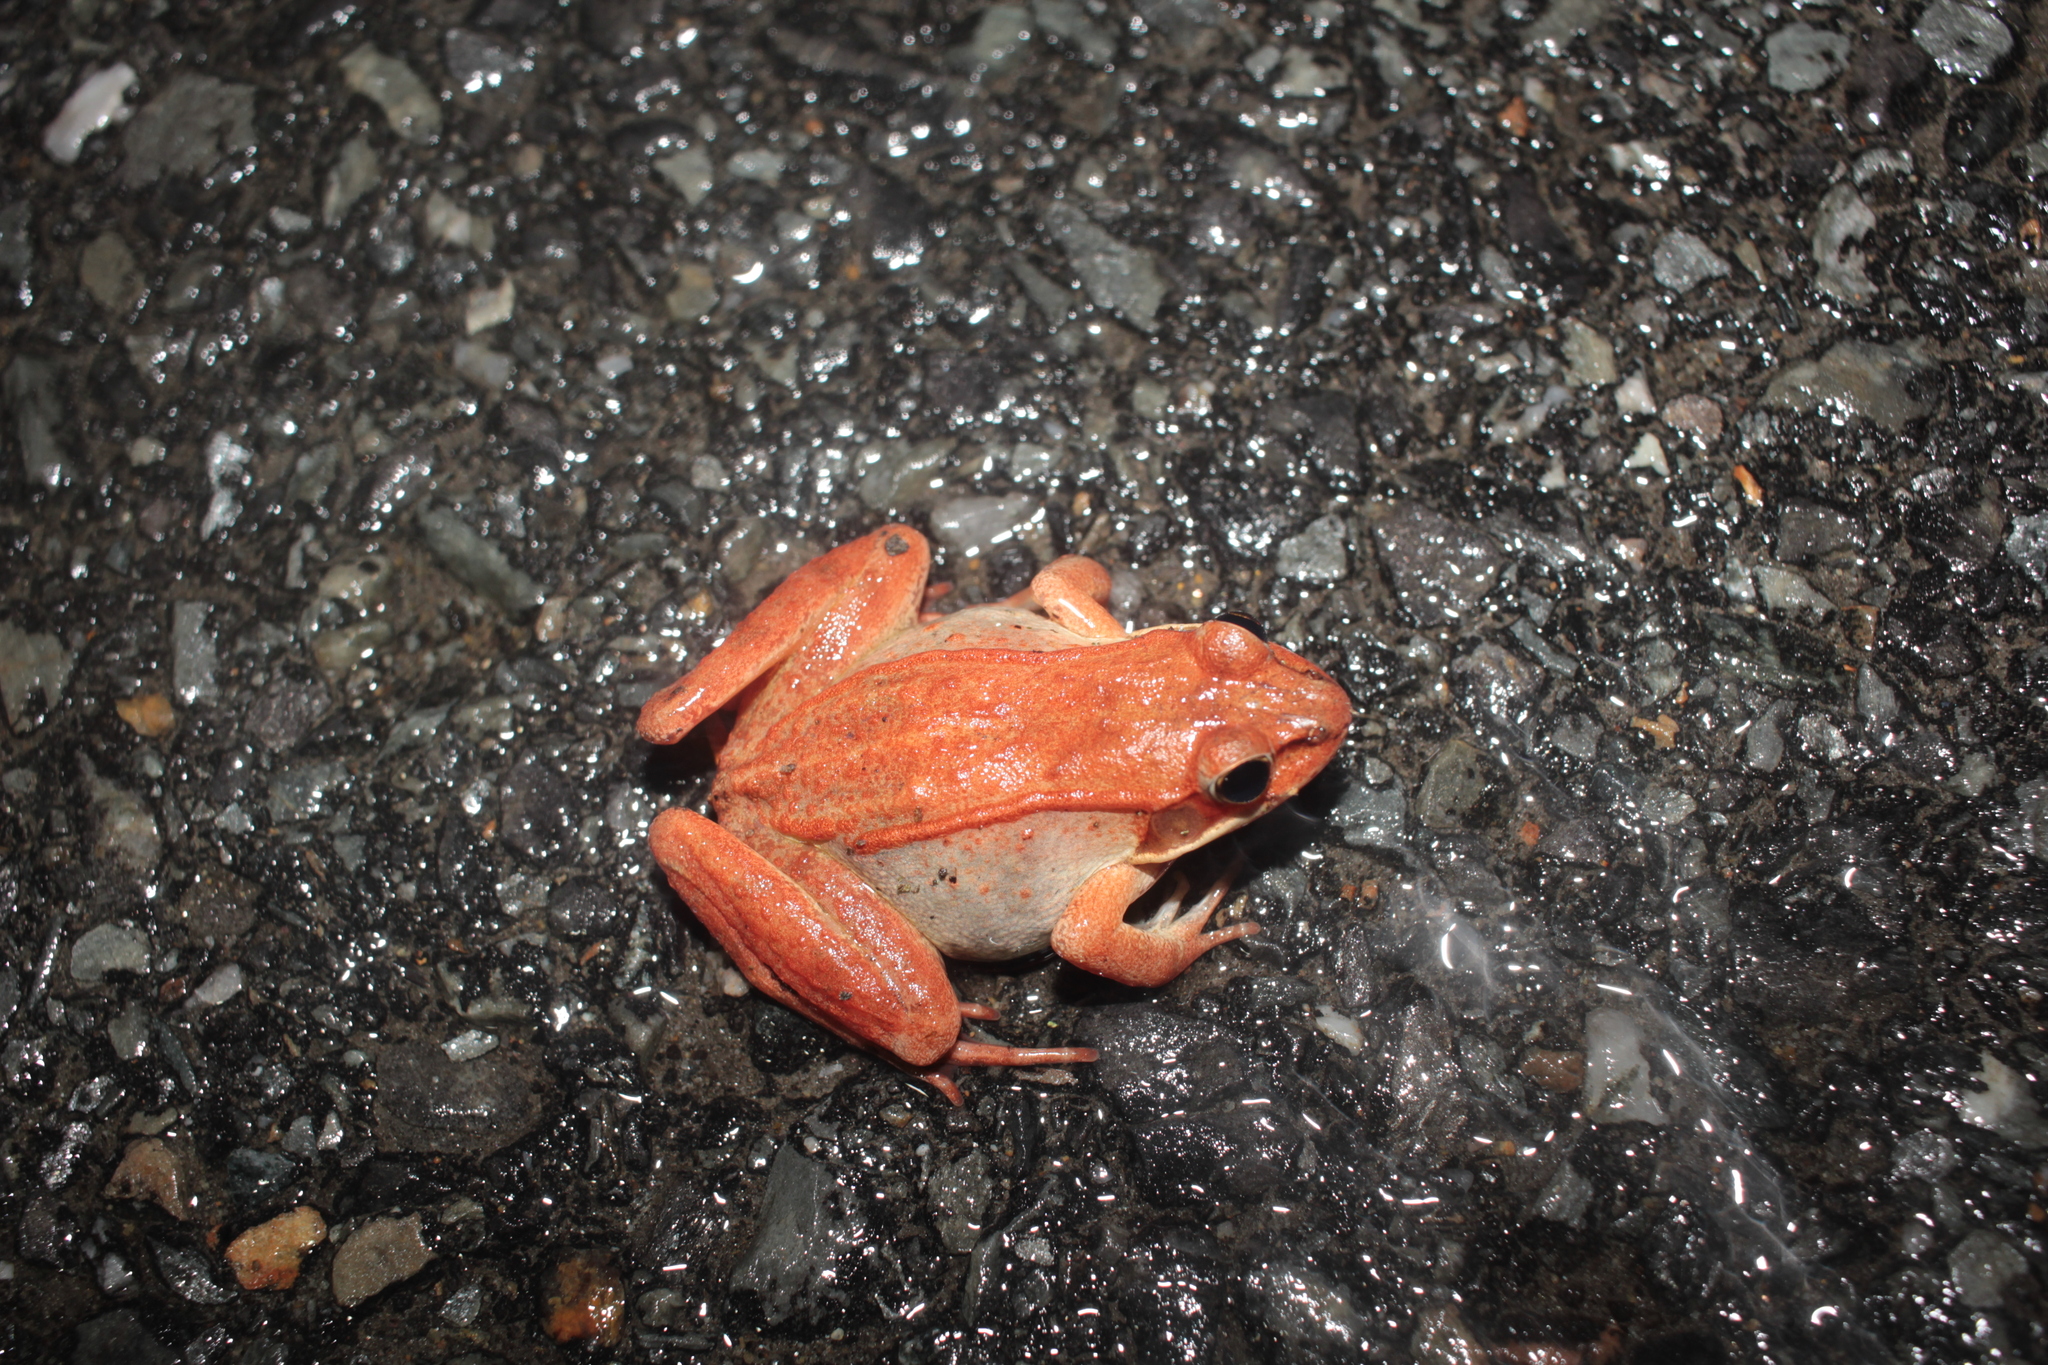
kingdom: Animalia
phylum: Chordata
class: Amphibia
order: Anura
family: Ranidae
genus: Lithobates
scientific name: Lithobates sylvaticus
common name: Wood frog
